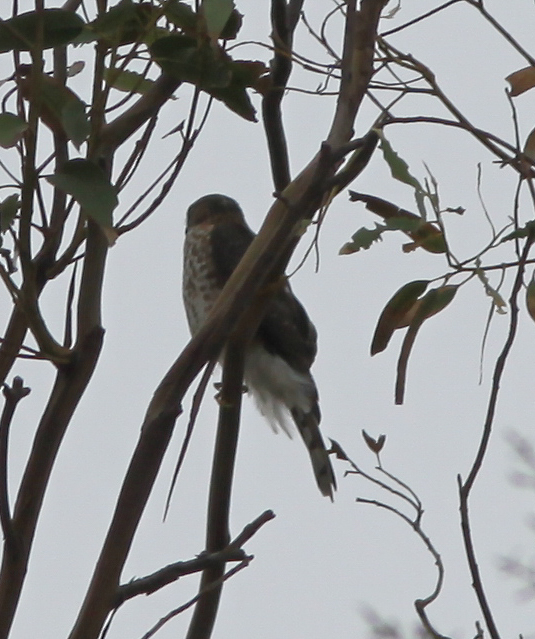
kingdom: Animalia
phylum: Chordata
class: Aves
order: Accipitriformes
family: Accipitridae
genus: Accipiter
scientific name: Accipiter striatus
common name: Sharp-shinned hawk
